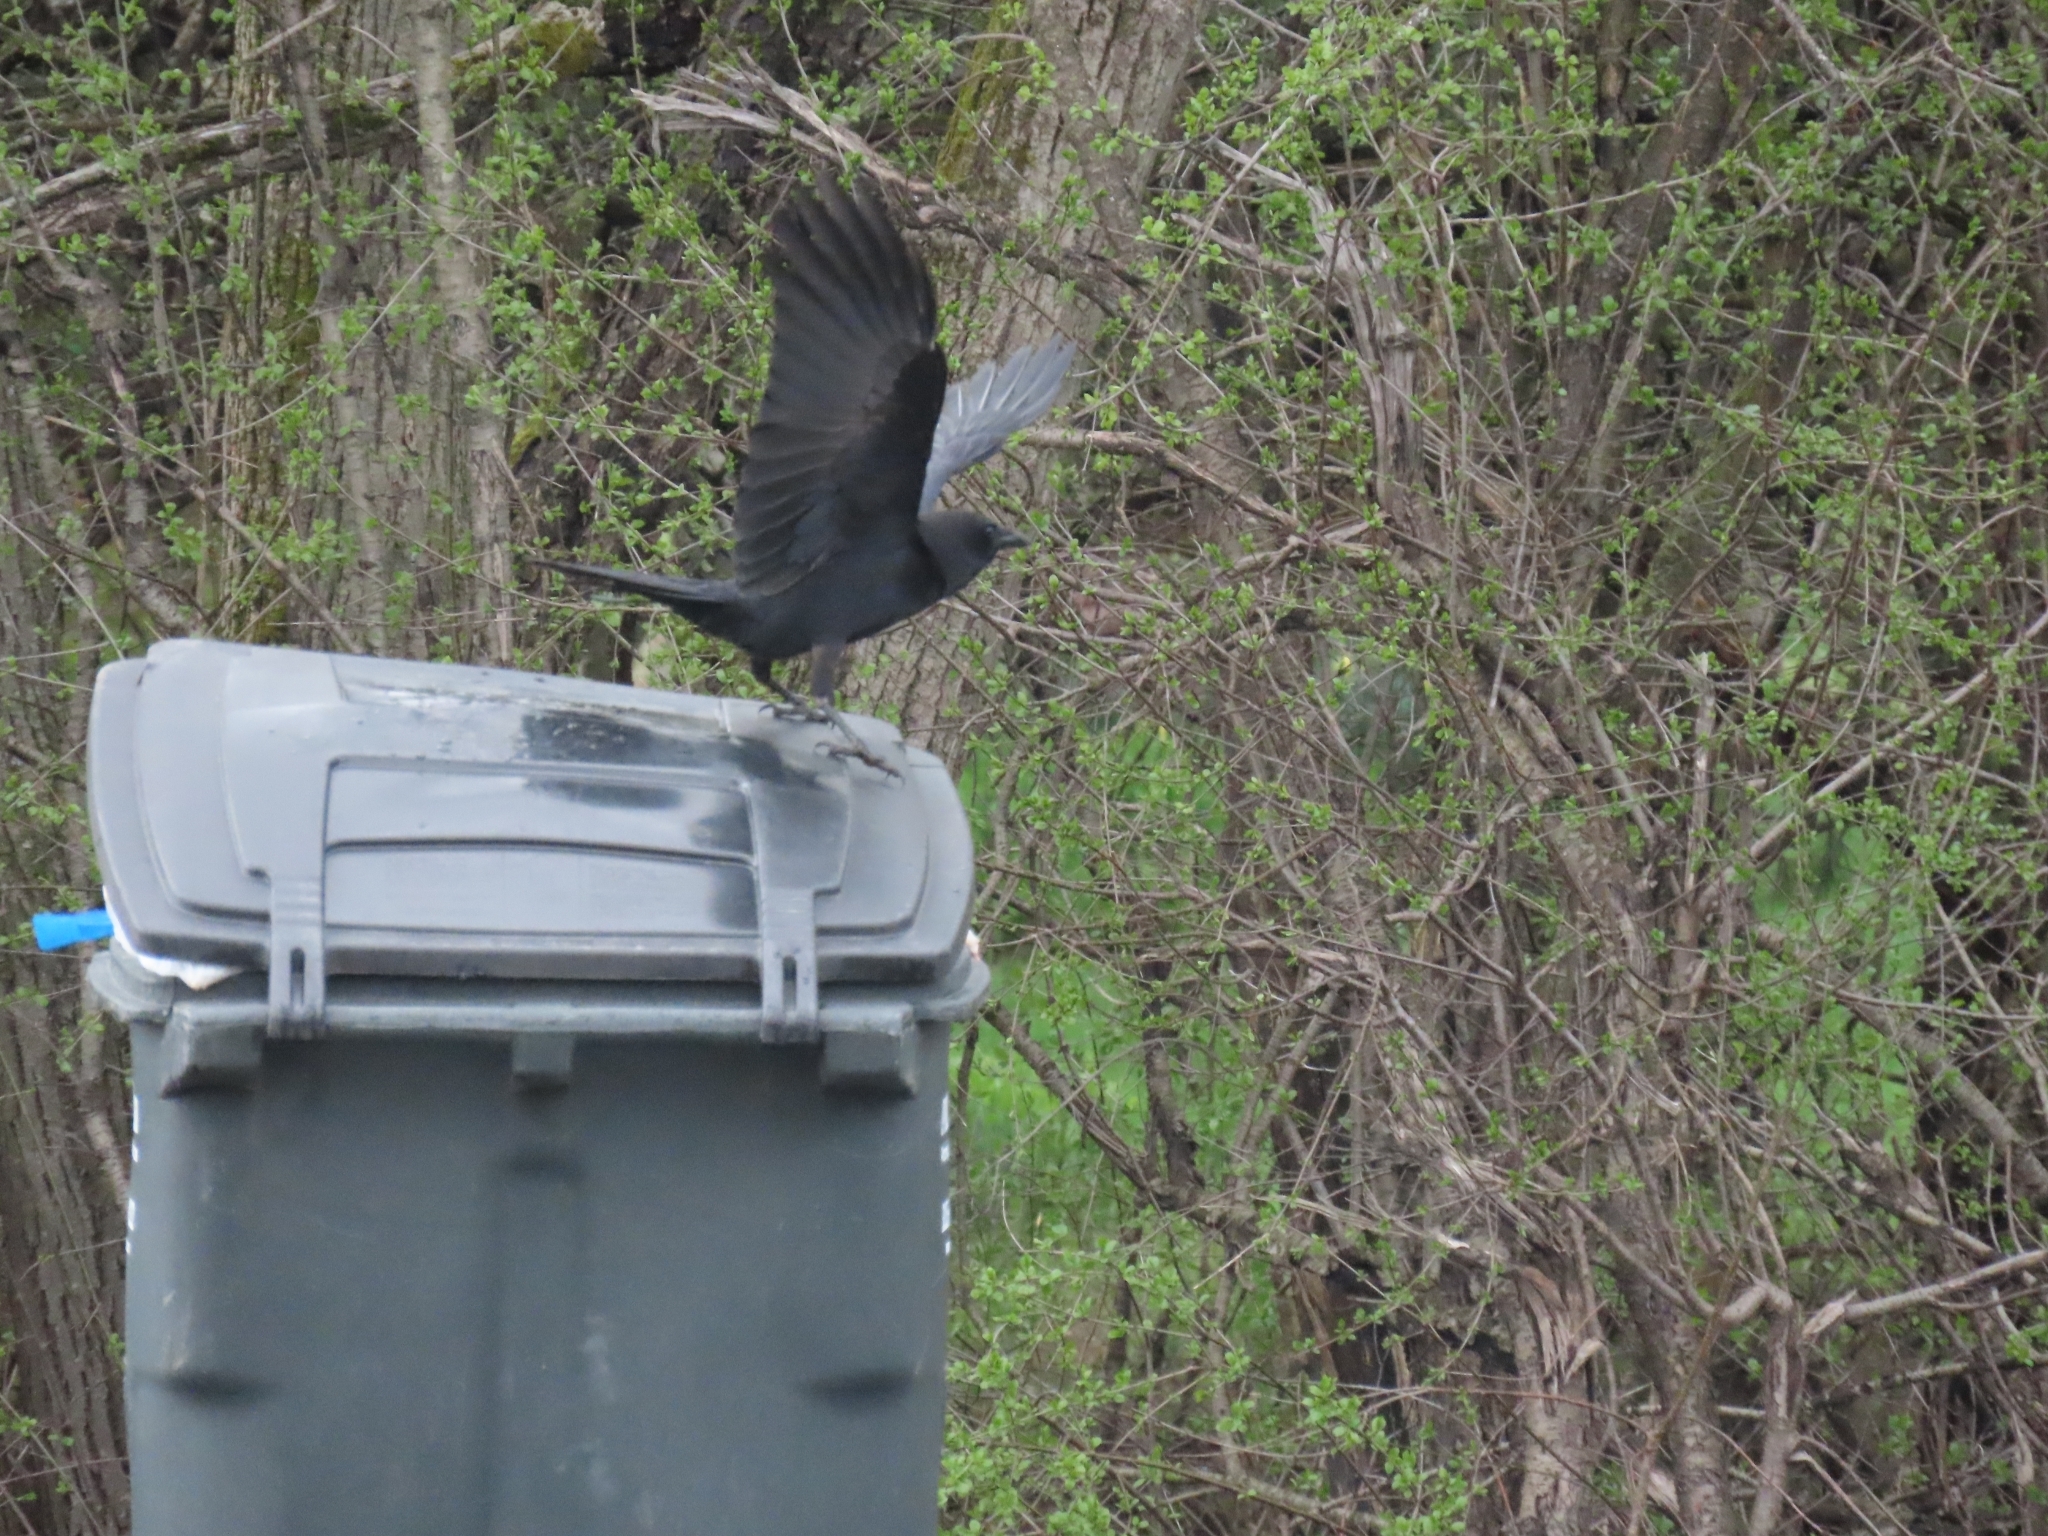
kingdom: Animalia
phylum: Chordata
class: Aves
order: Passeriformes
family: Corvidae
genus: Corvus
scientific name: Corvus brachyrhynchos
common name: American crow
